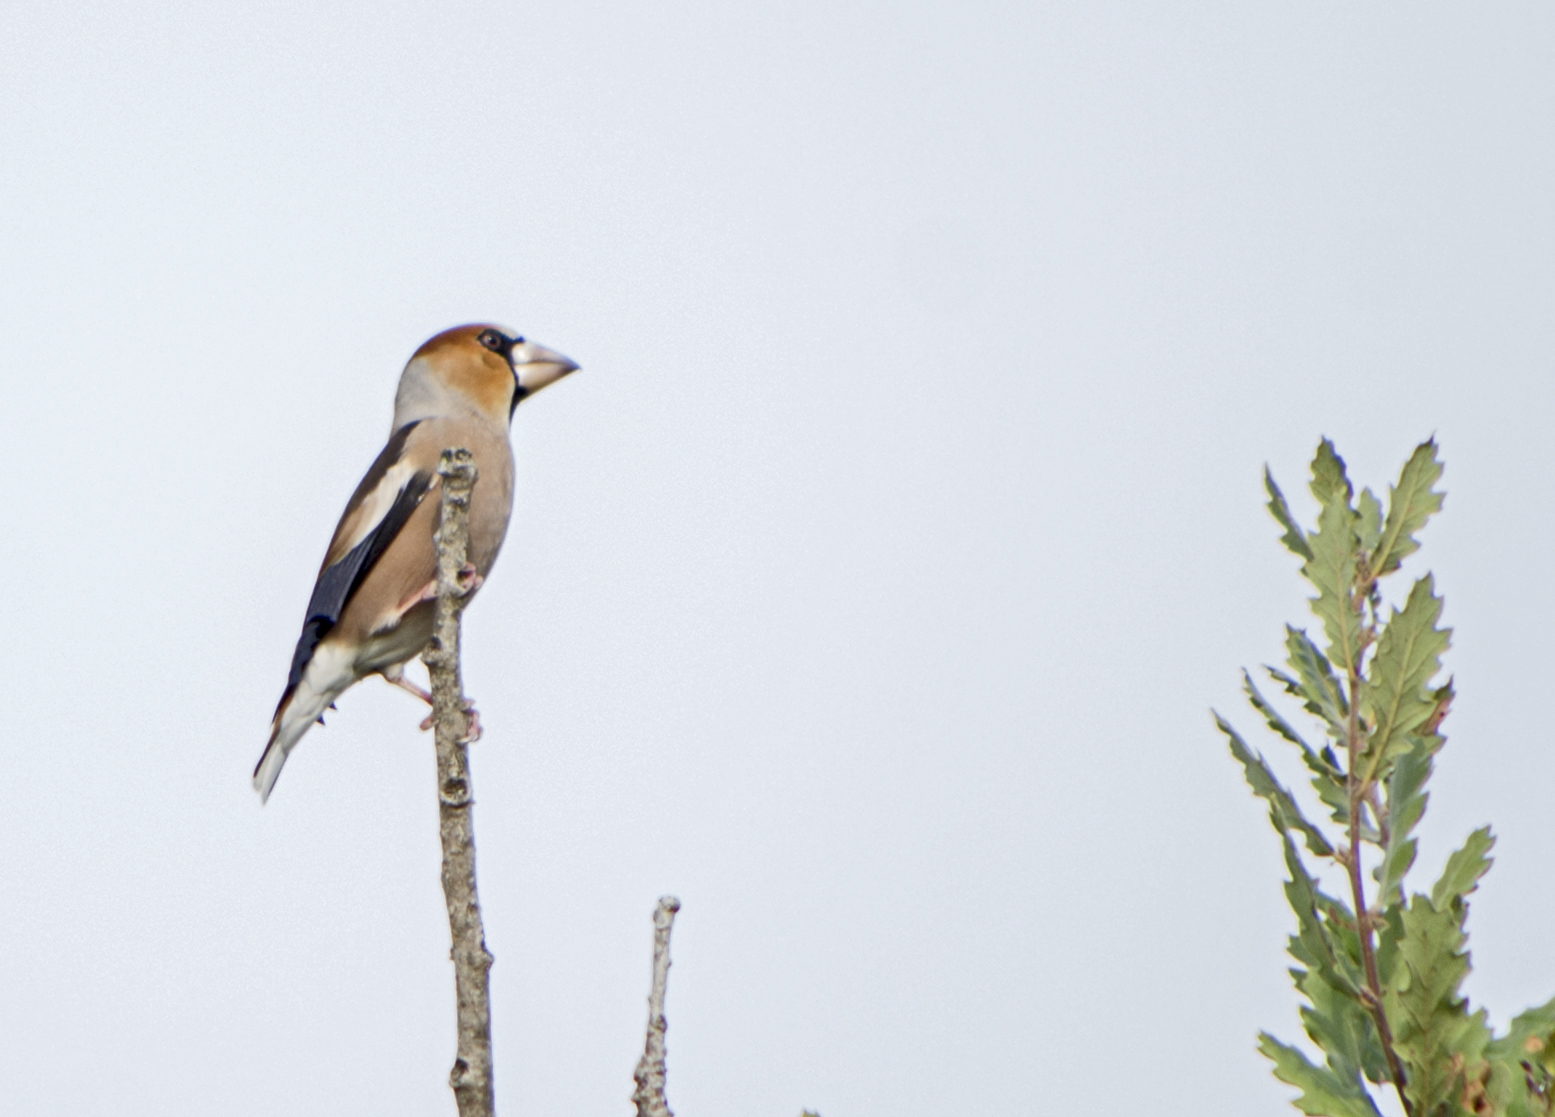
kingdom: Animalia
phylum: Chordata
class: Aves
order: Passeriformes
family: Fringillidae
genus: Coccothraustes
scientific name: Coccothraustes coccothraustes
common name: Hawfinch
